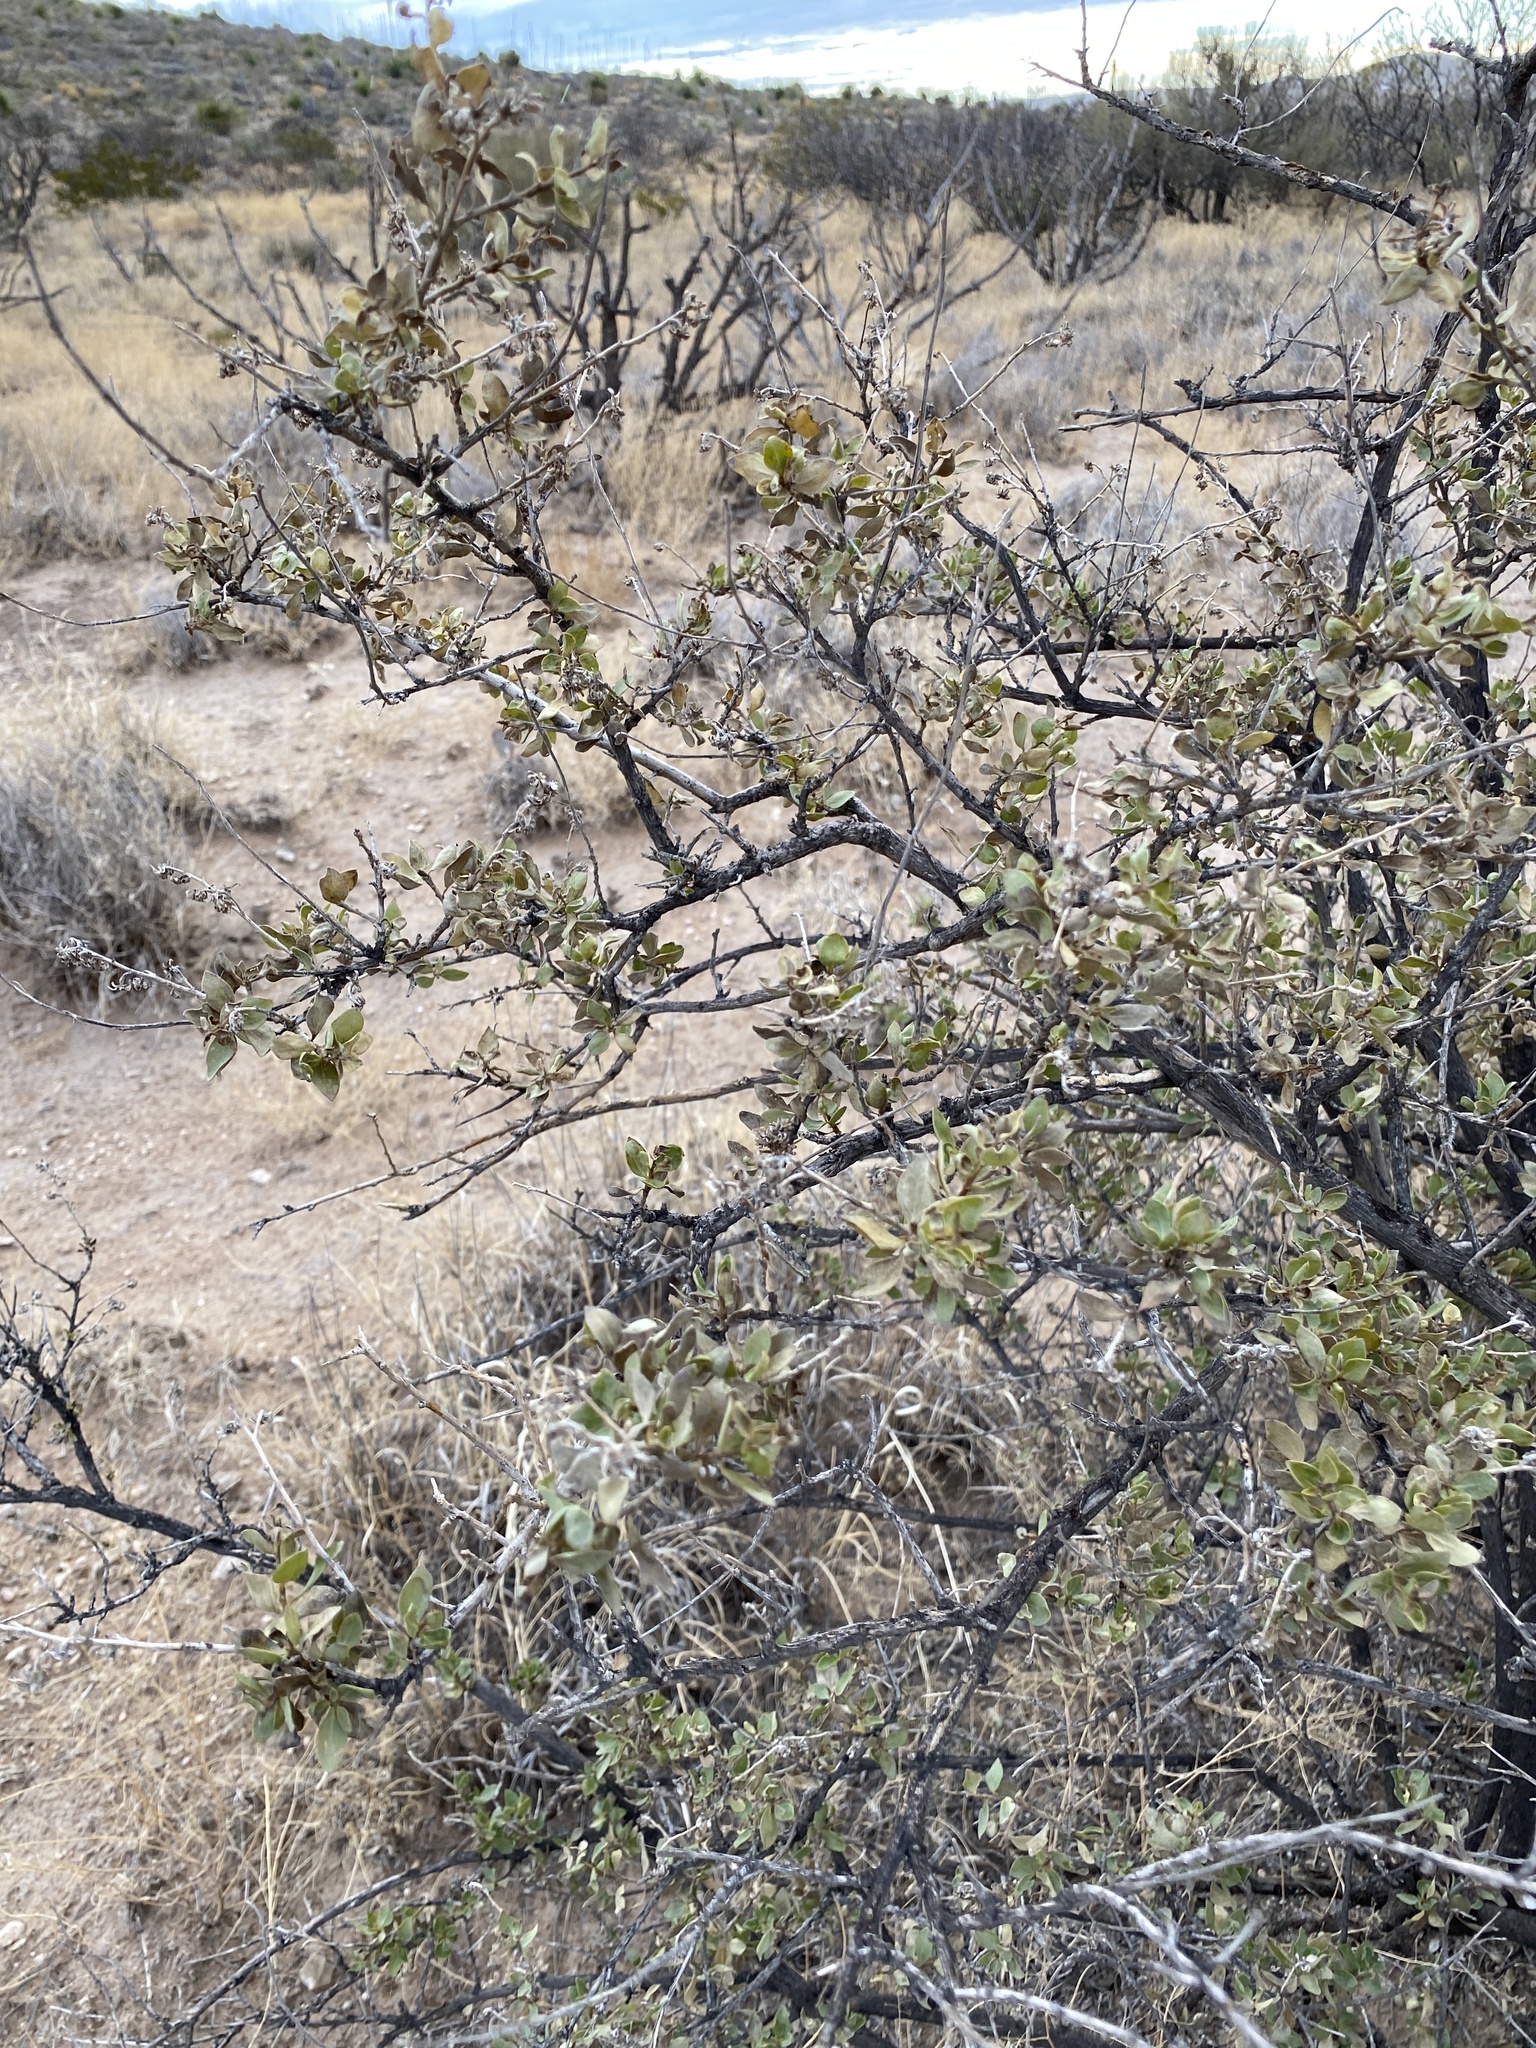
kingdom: Plantae
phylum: Tracheophyta
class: Magnoliopsida
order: Asterales
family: Asteraceae
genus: Flourensia
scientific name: Flourensia cernua
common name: Varnishbush
